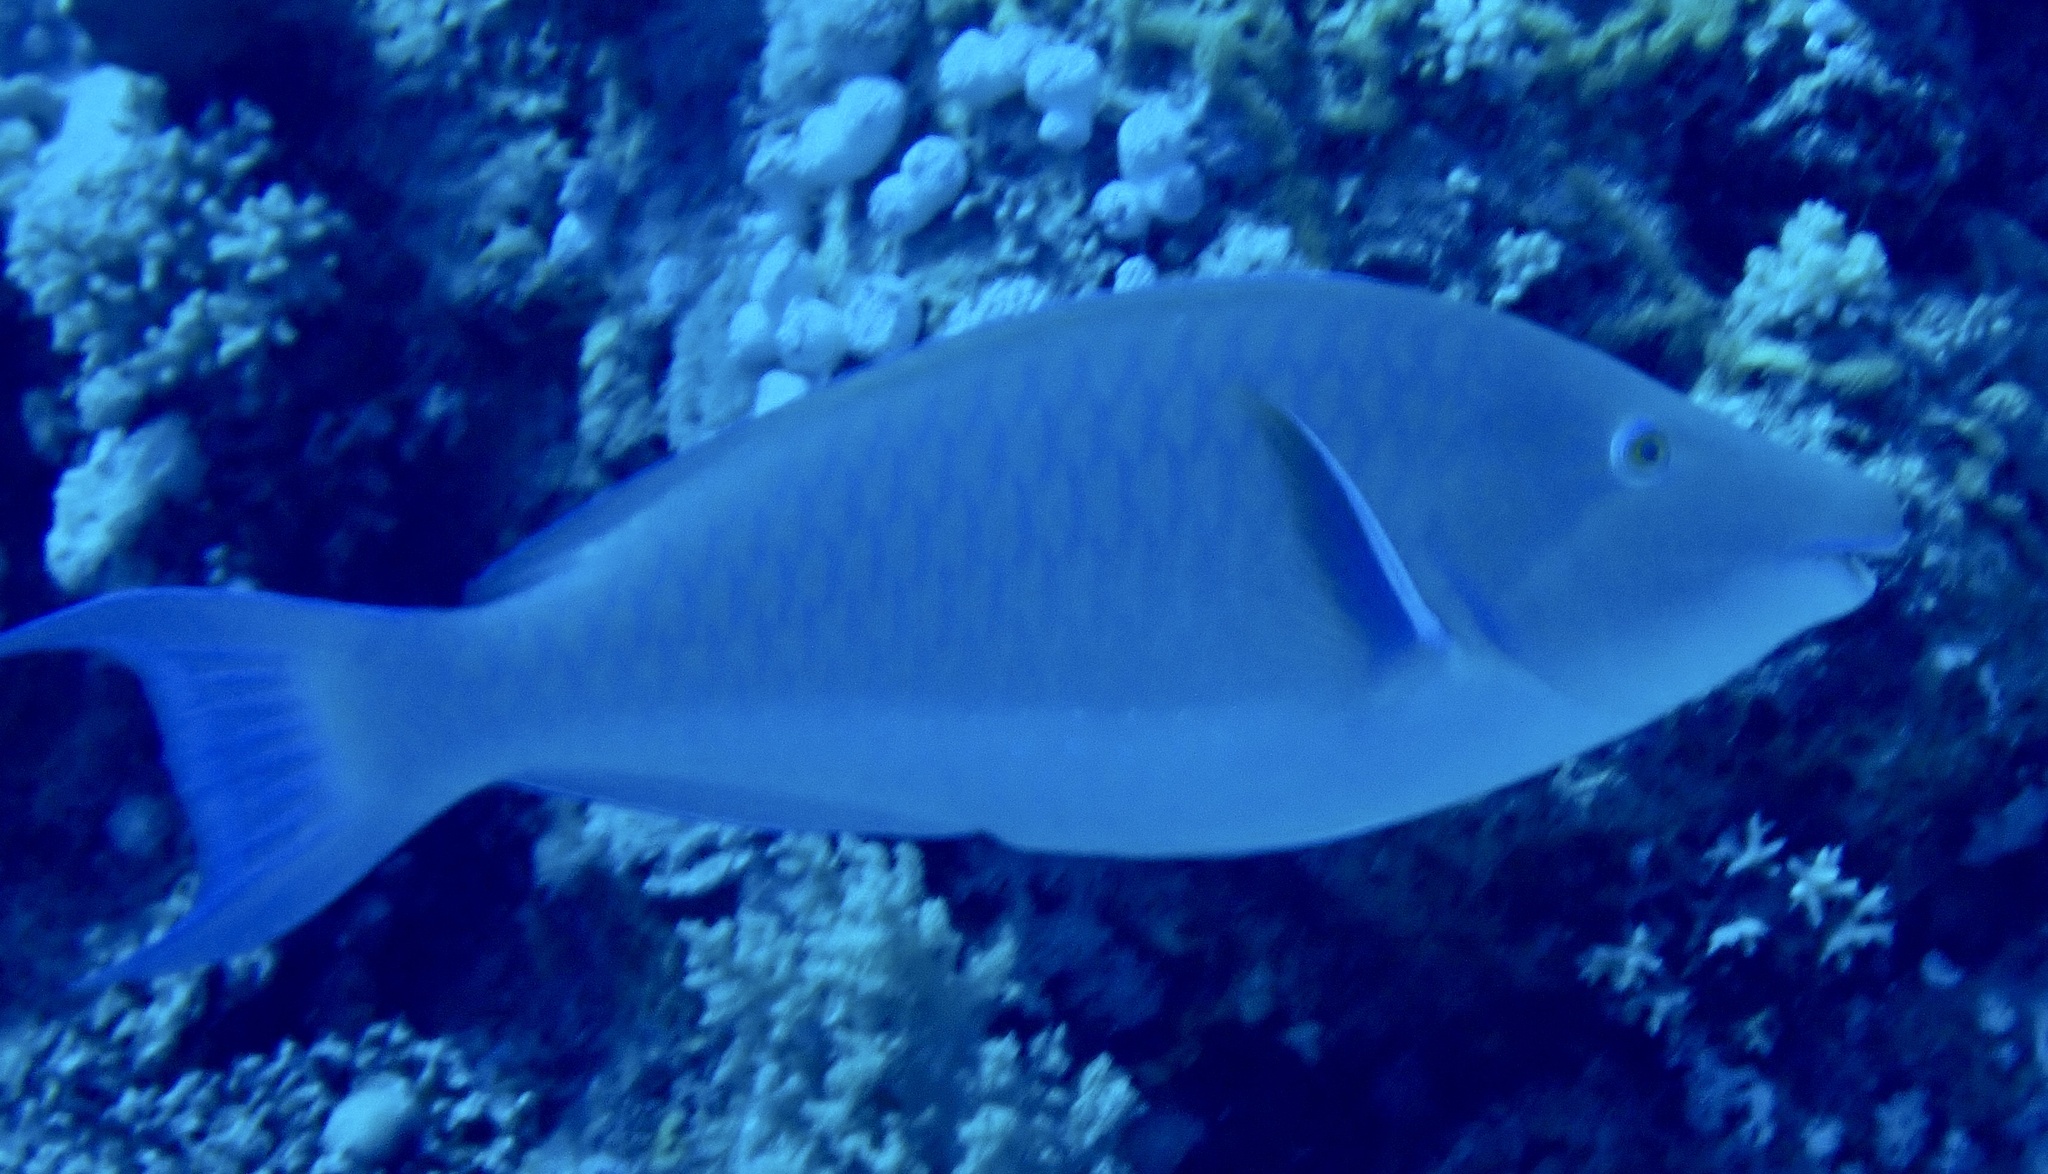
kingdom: Animalia
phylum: Chordata
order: Perciformes
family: Scaridae
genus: Hipposcarus
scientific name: Hipposcarus harid
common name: Candelamoa parrotfish
